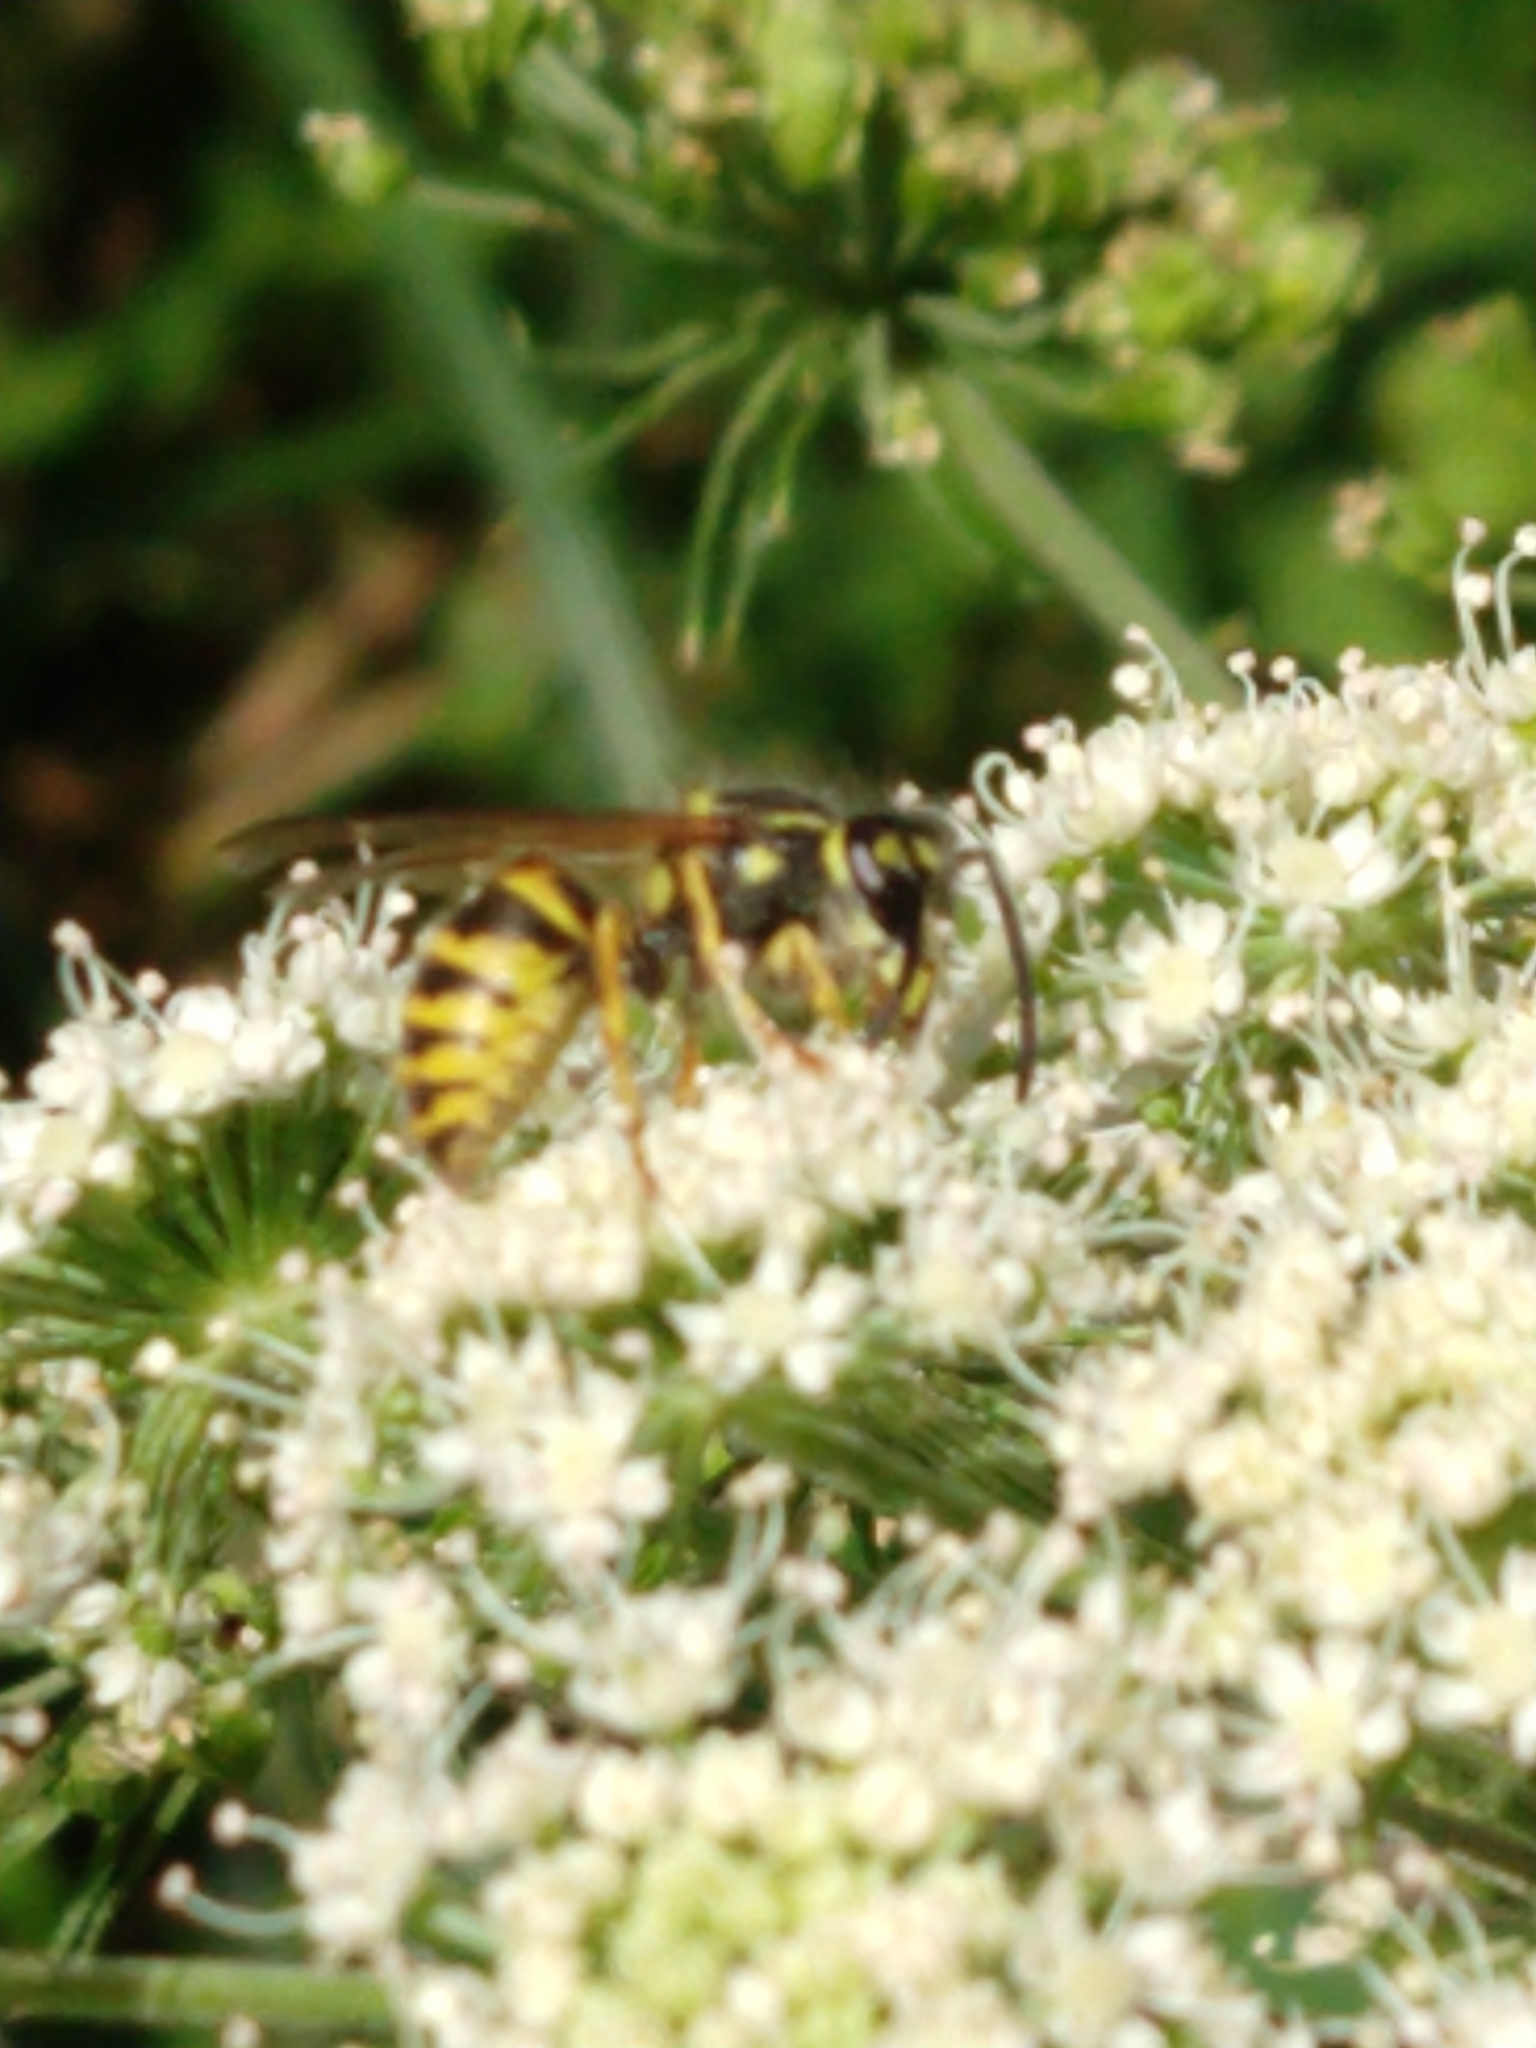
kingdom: Animalia
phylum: Arthropoda
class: Insecta
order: Hymenoptera
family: Vespidae
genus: Vespula
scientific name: Vespula vulgaris
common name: Common wasp
